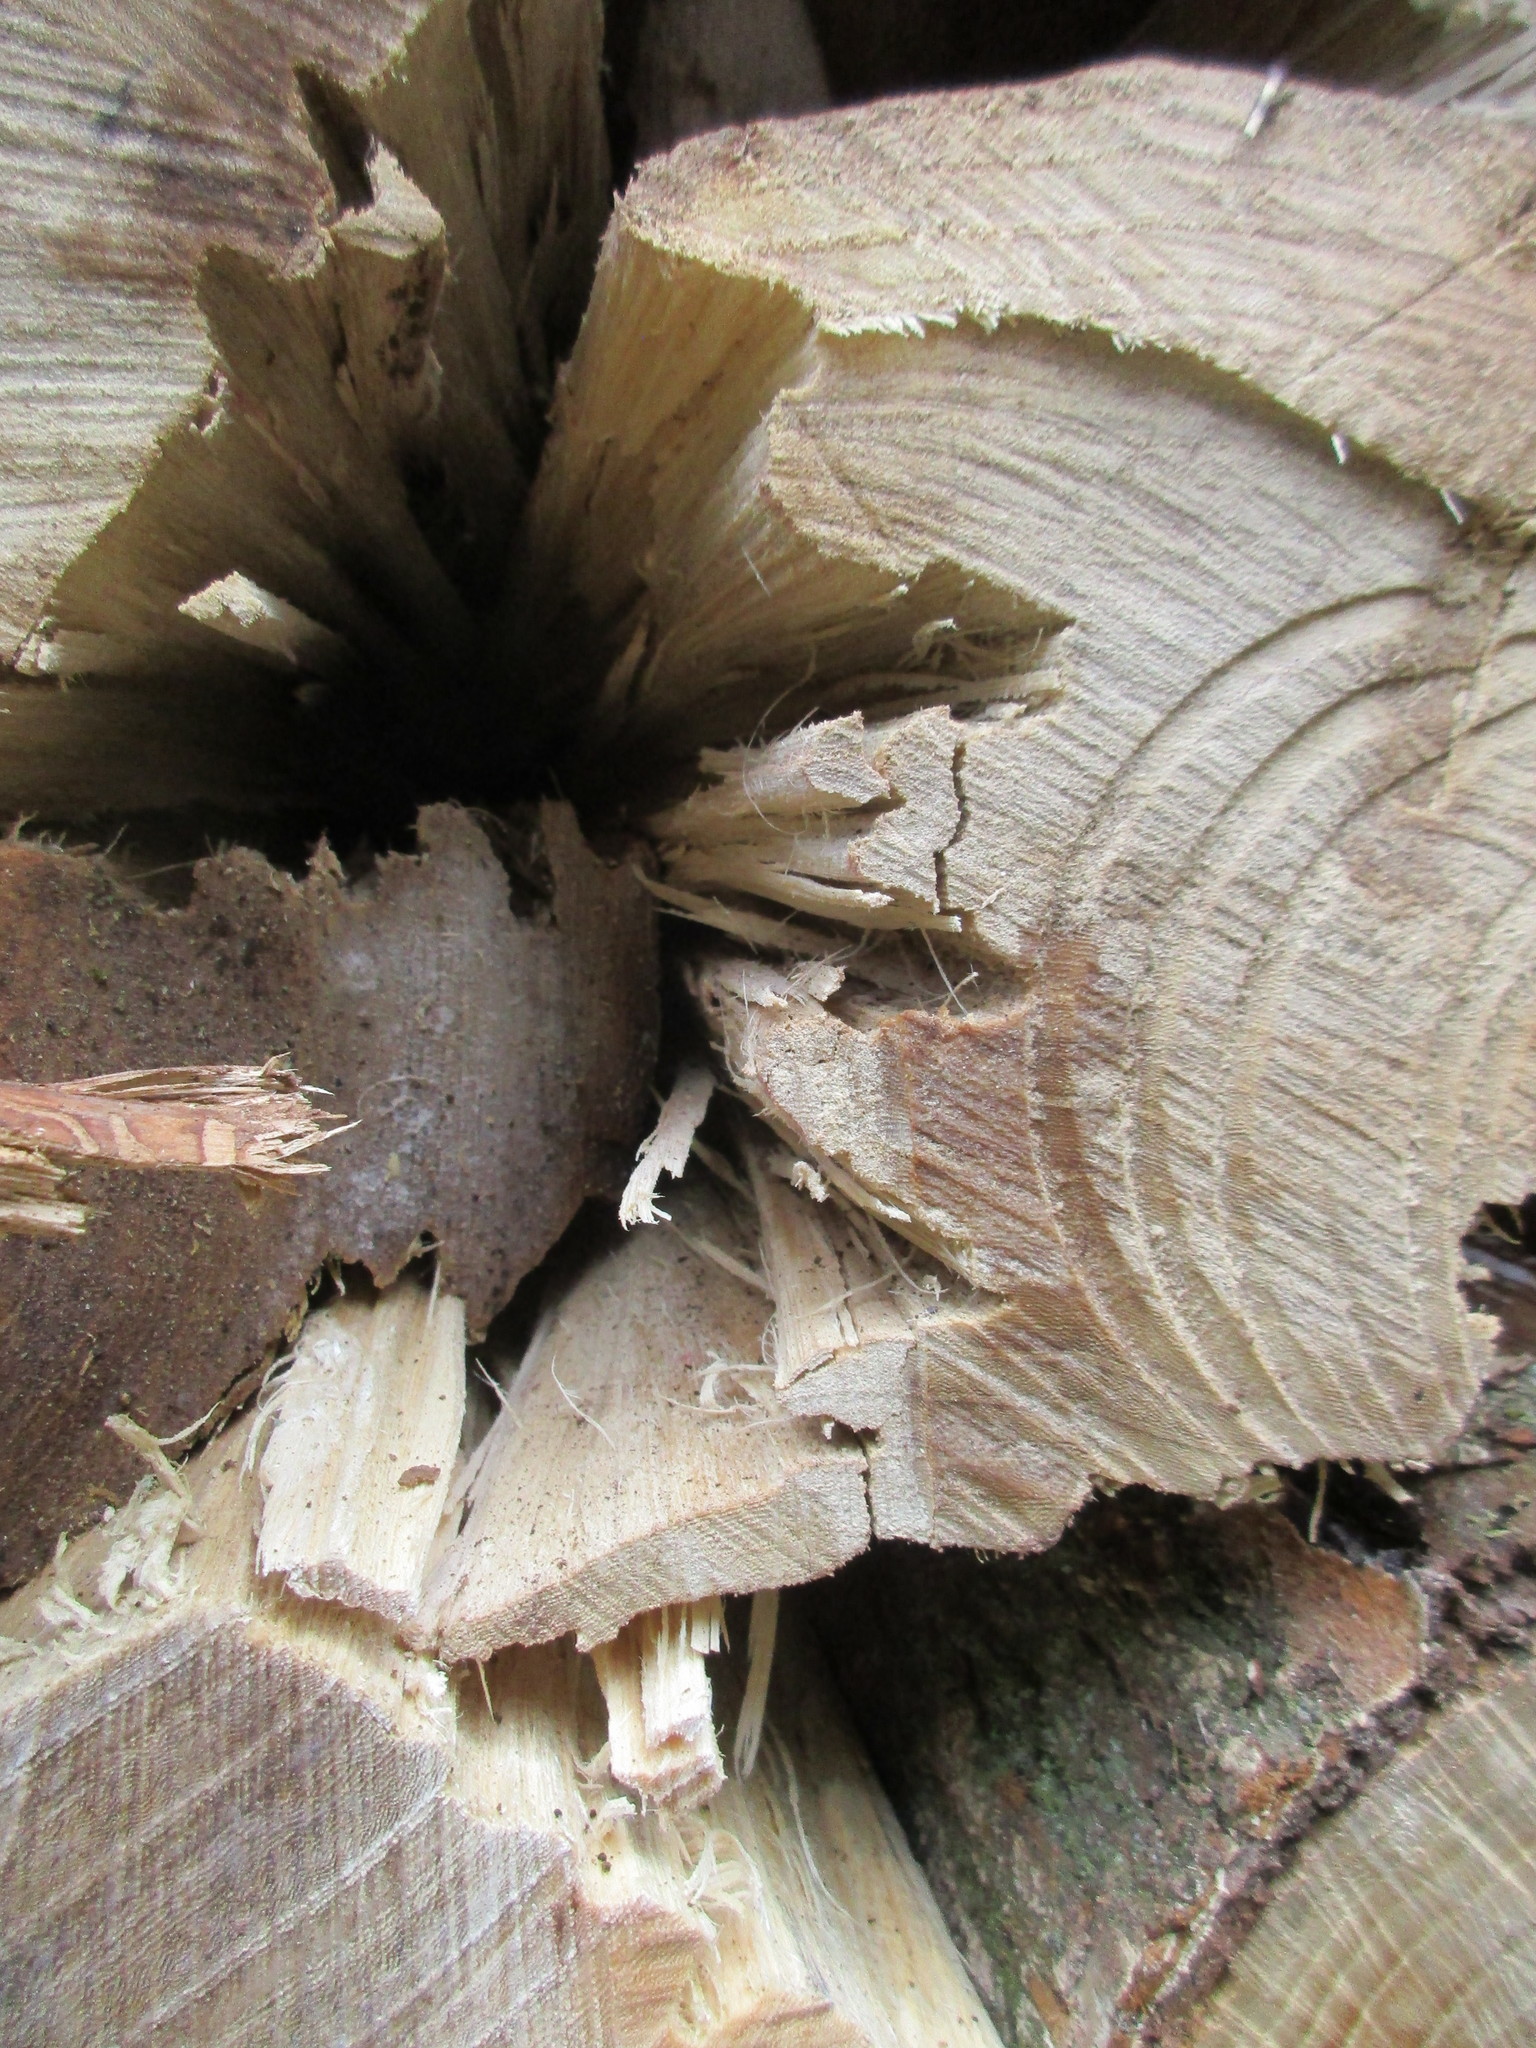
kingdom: Animalia
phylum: Arthropoda
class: Insecta
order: Coleoptera
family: Curculionidae
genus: Scolytus
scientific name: Scolytus multistriatus
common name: European elm bark beetle
